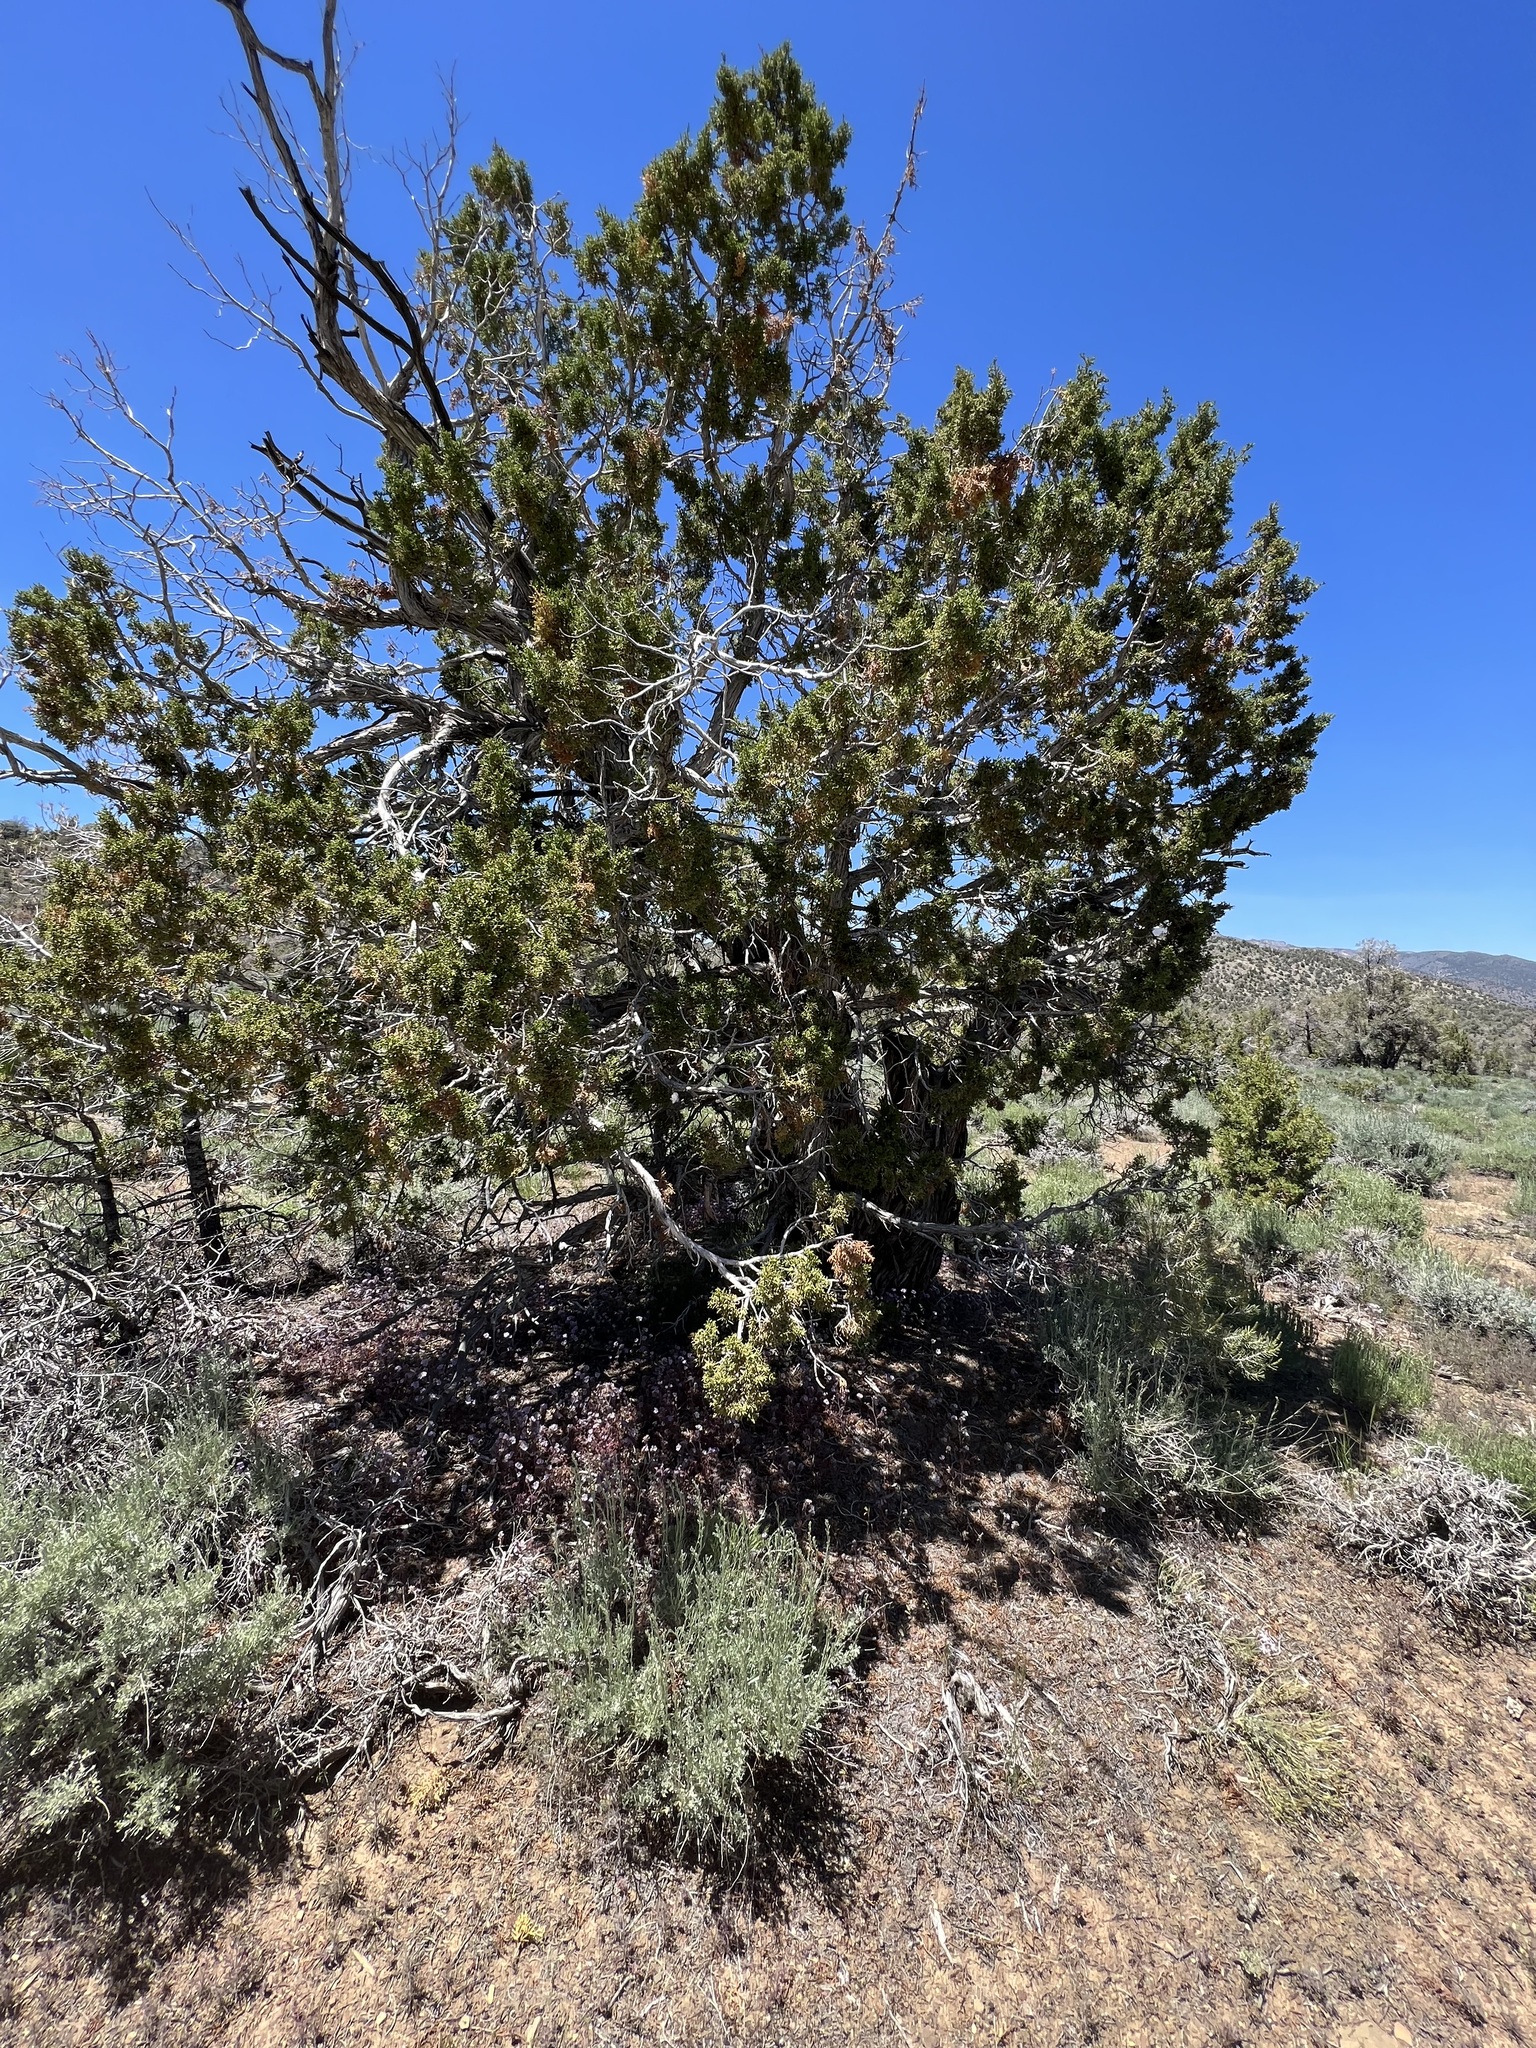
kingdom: Plantae
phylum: Tracheophyta
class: Pinopsida
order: Pinales
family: Cupressaceae
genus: Juniperus
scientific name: Juniperus osteosperma
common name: Utah juniper
